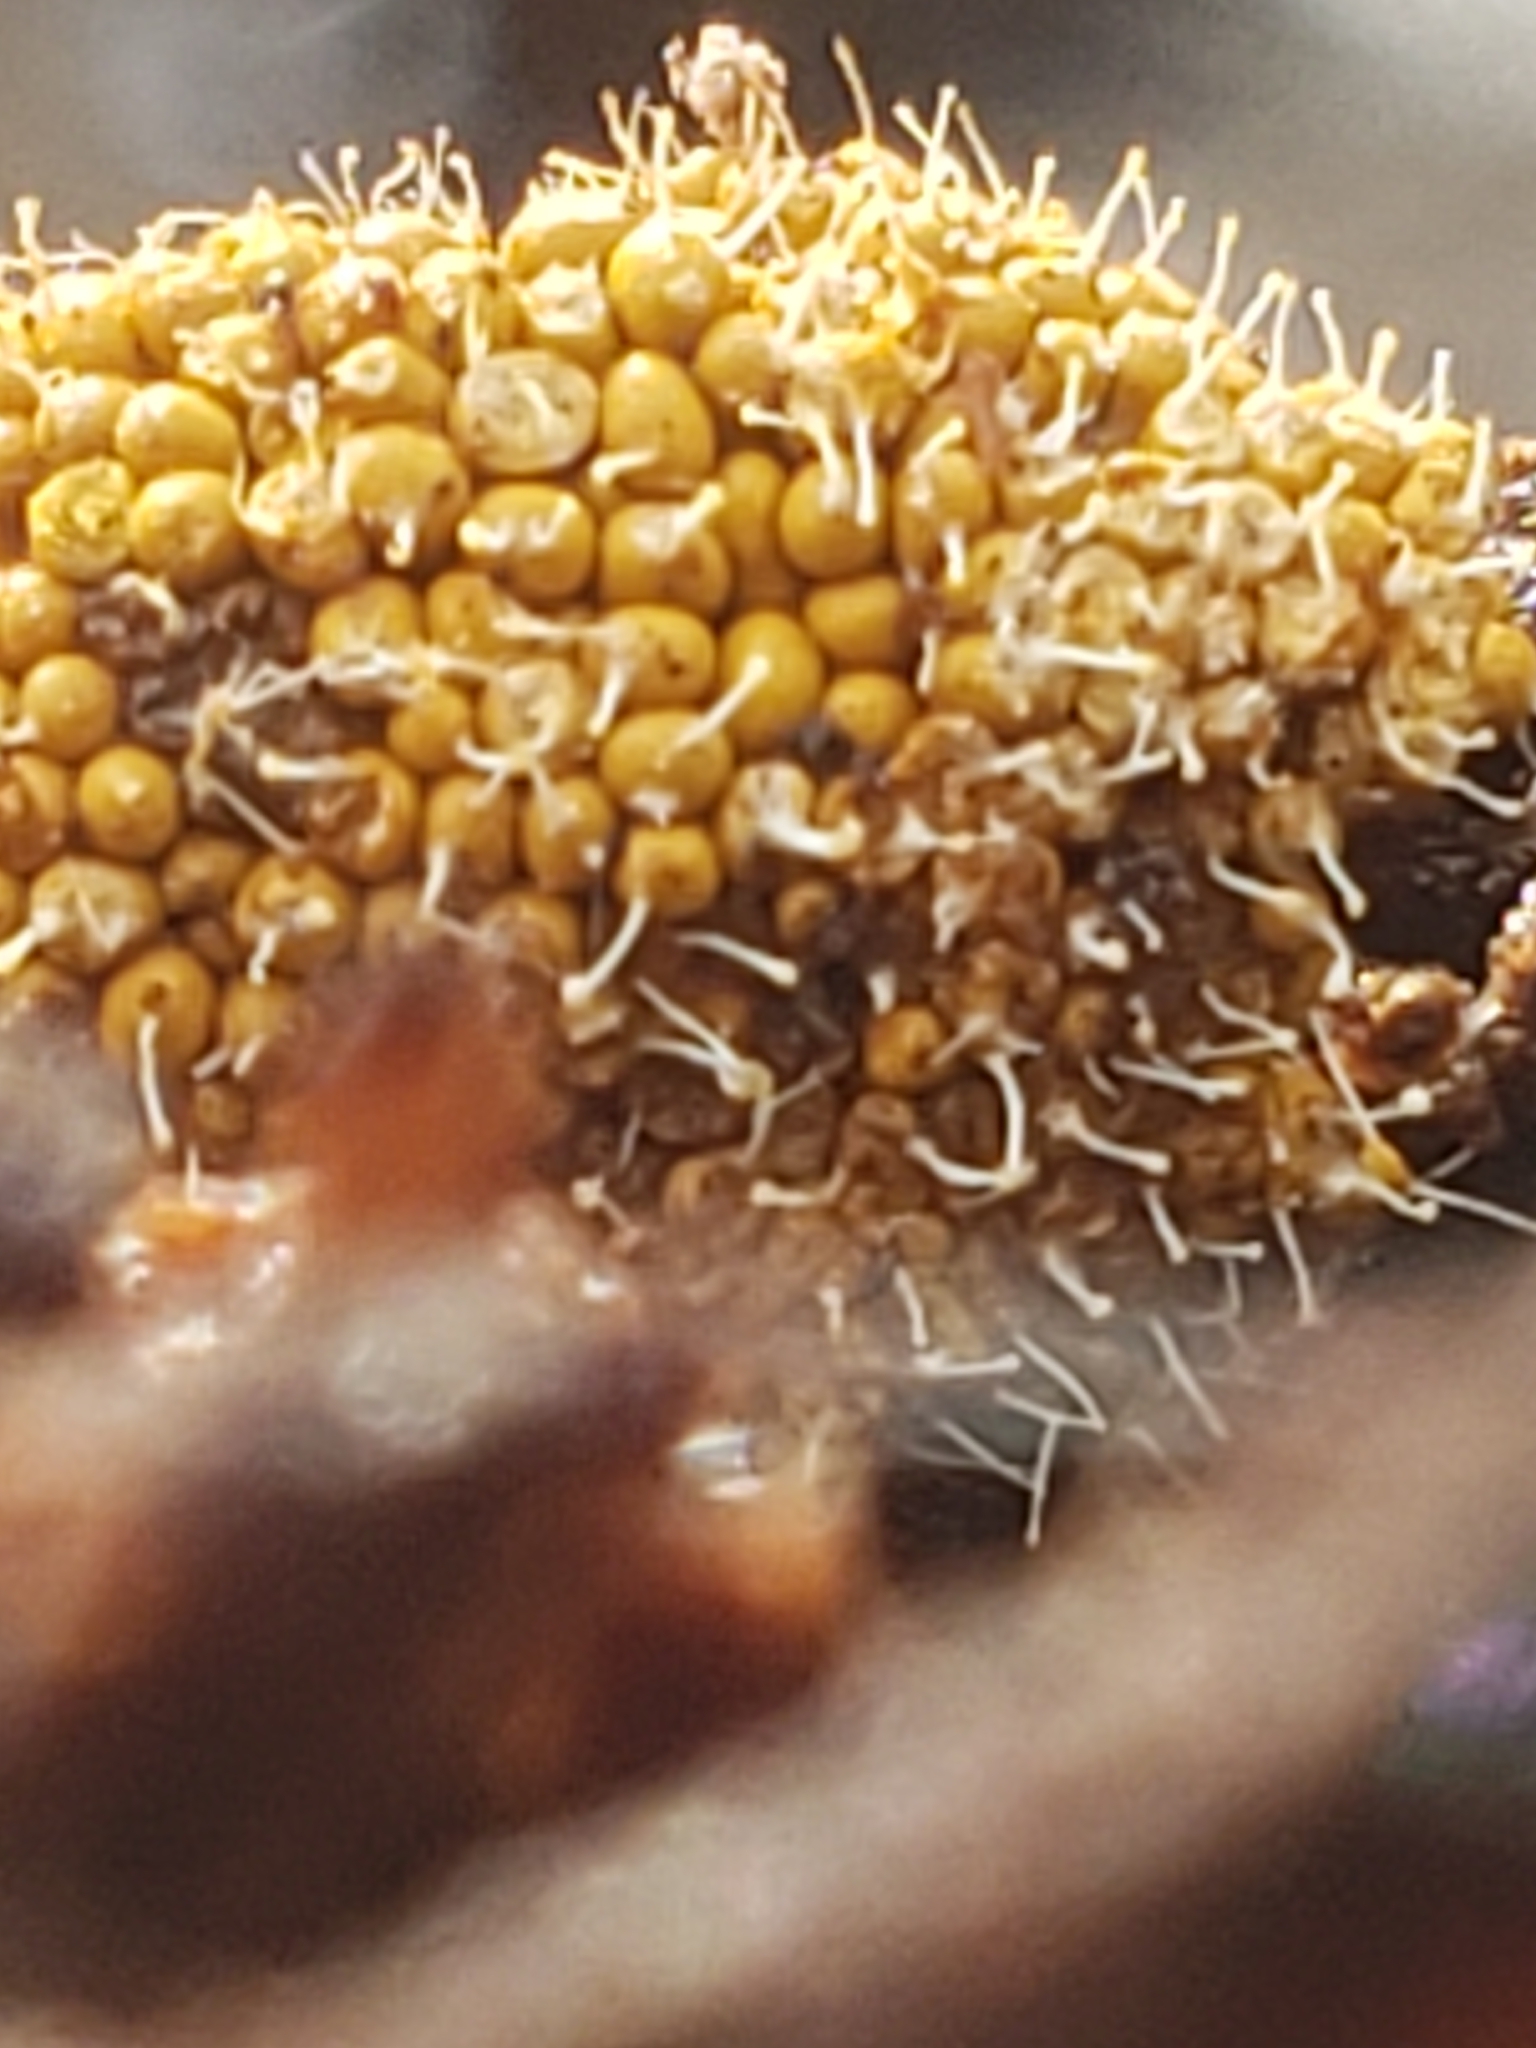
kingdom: Fungi
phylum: Ascomycota
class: Sordariomycetes
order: Hypocreales
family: Ophiocordycipitaceae
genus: Polycephalomyces
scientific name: Polycephalomyces tomentosus
